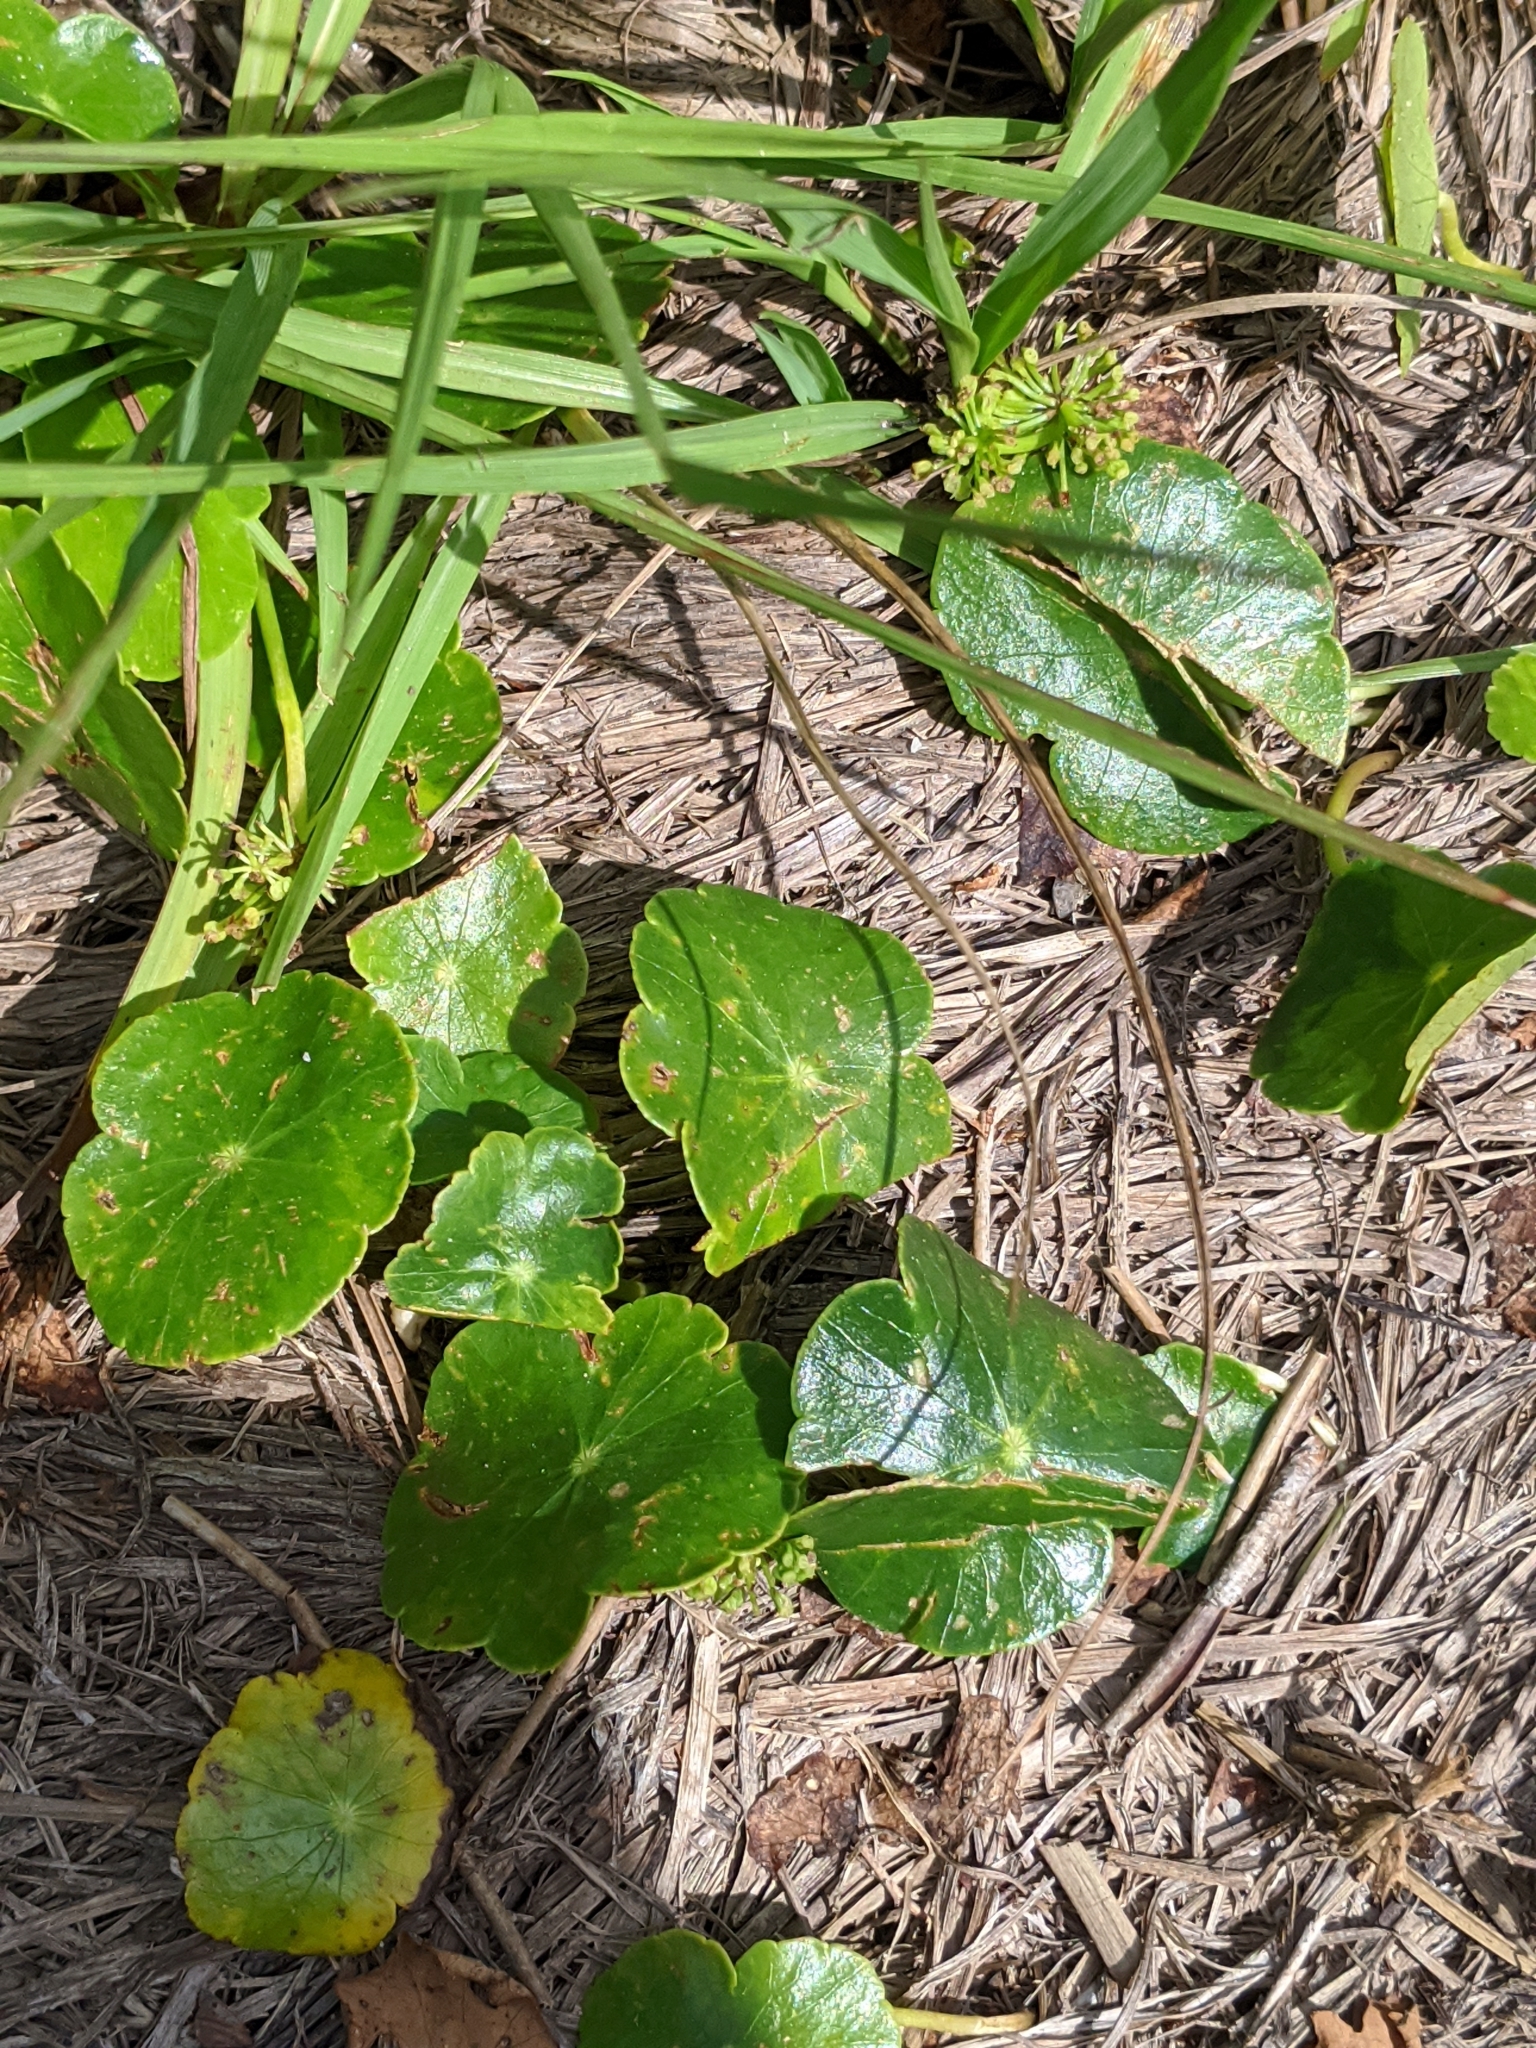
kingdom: Plantae
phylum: Tracheophyta
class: Magnoliopsida
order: Apiales
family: Araliaceae
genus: Hydrocotyle
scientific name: Hydrocotyle bonariensis
